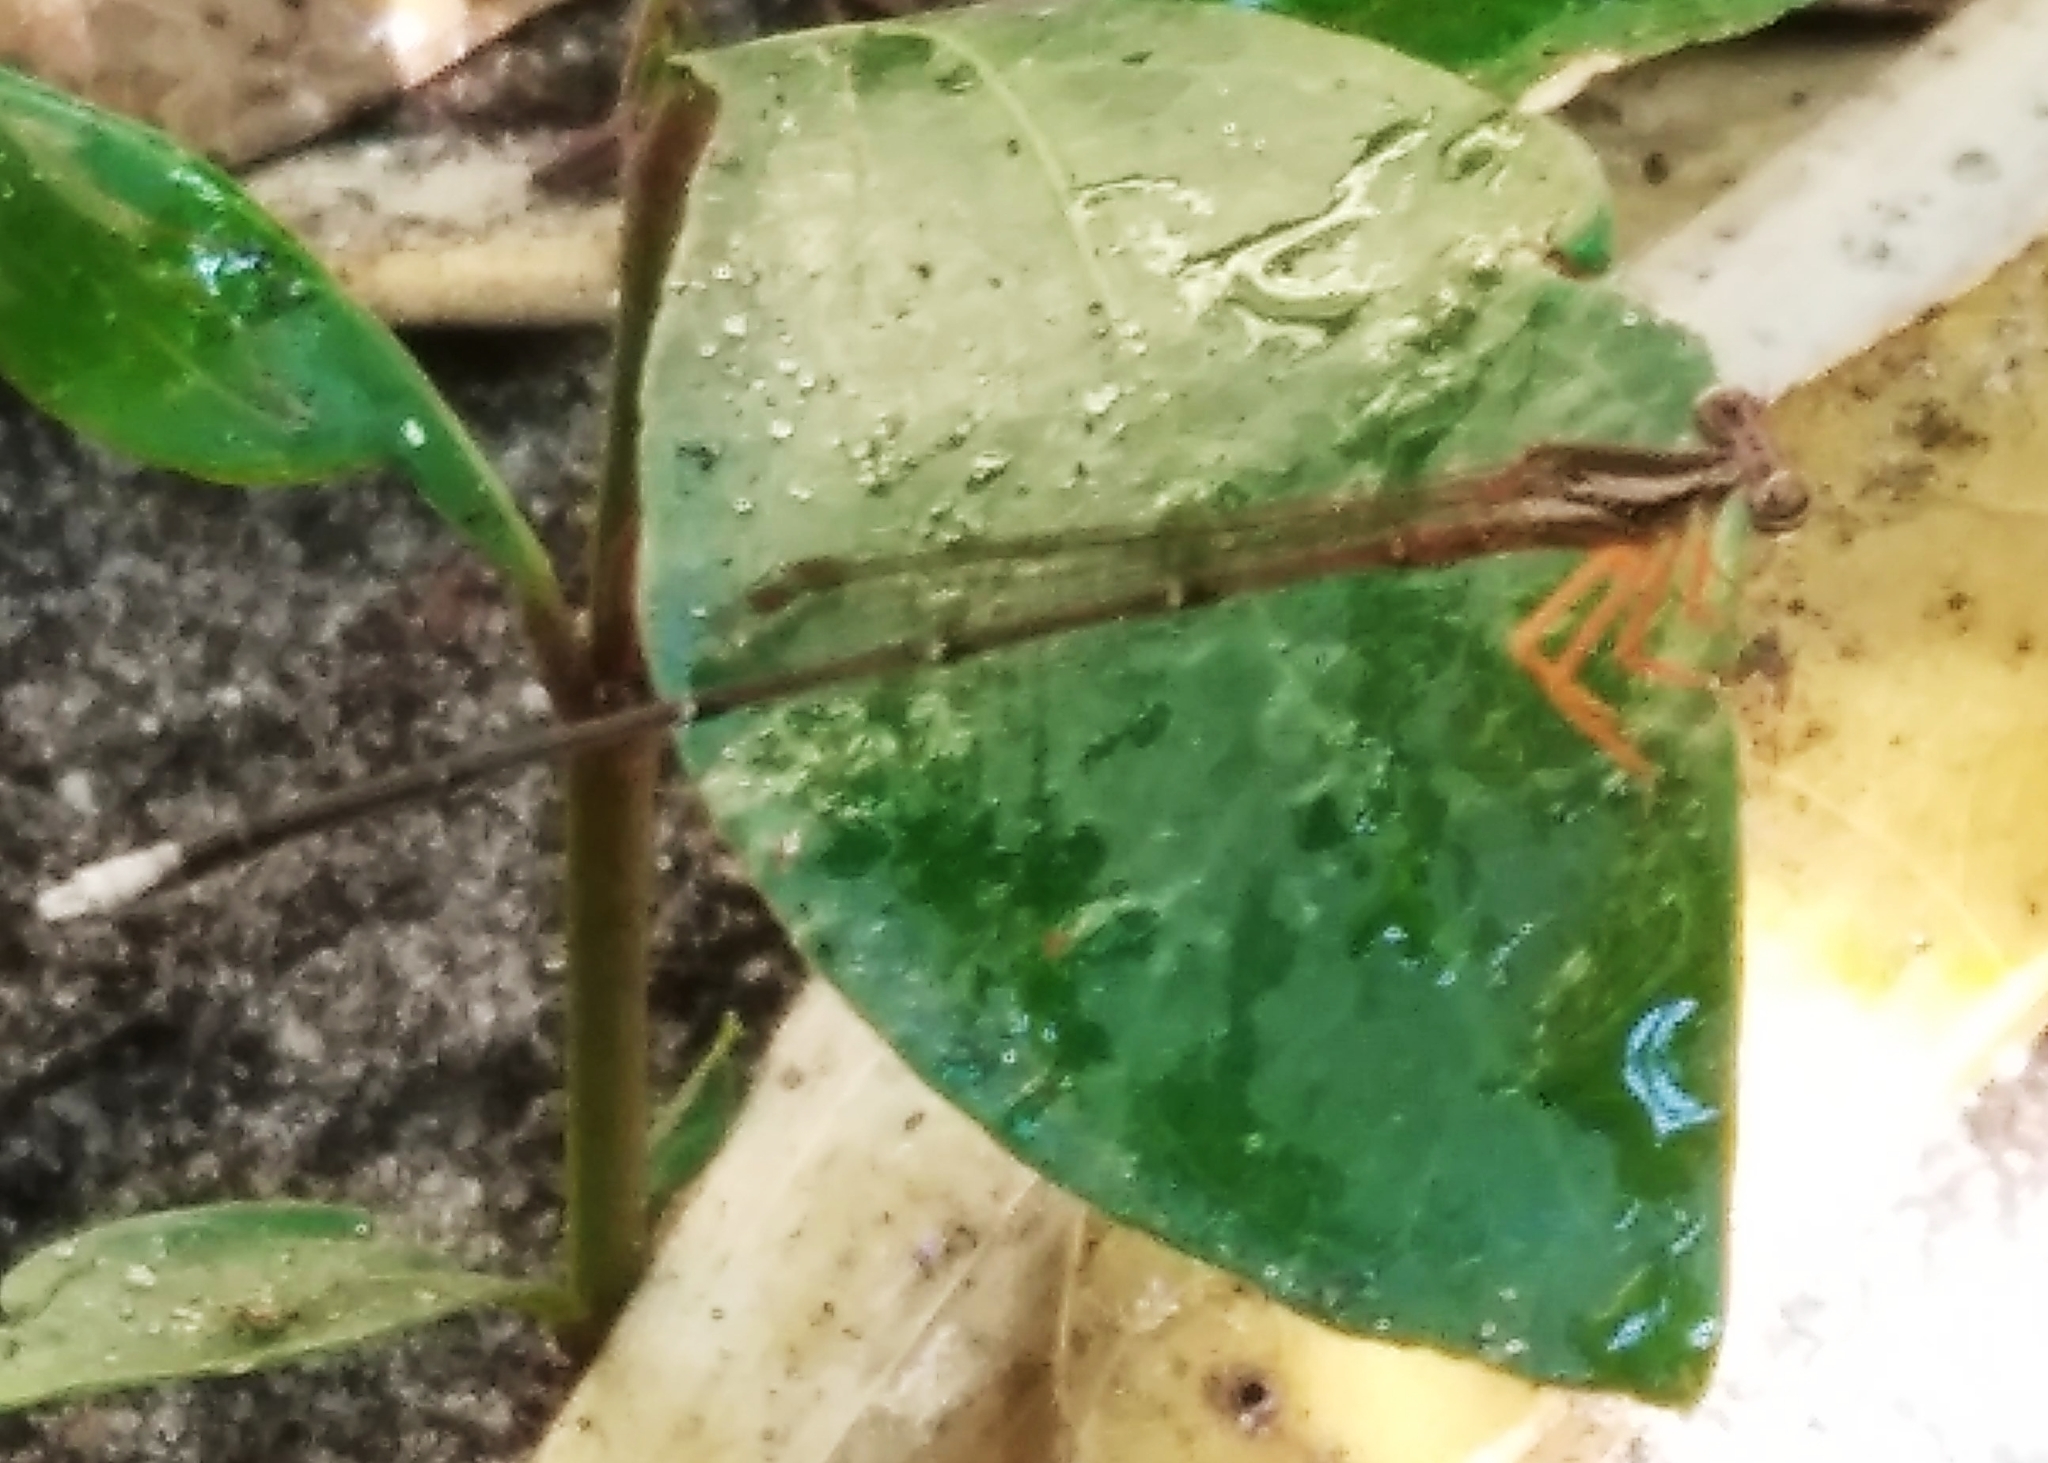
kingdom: Animalia
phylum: Arthropoda
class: Insecta
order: Odonata
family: Platycnemididae
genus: Copera
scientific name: Copera marginipes
